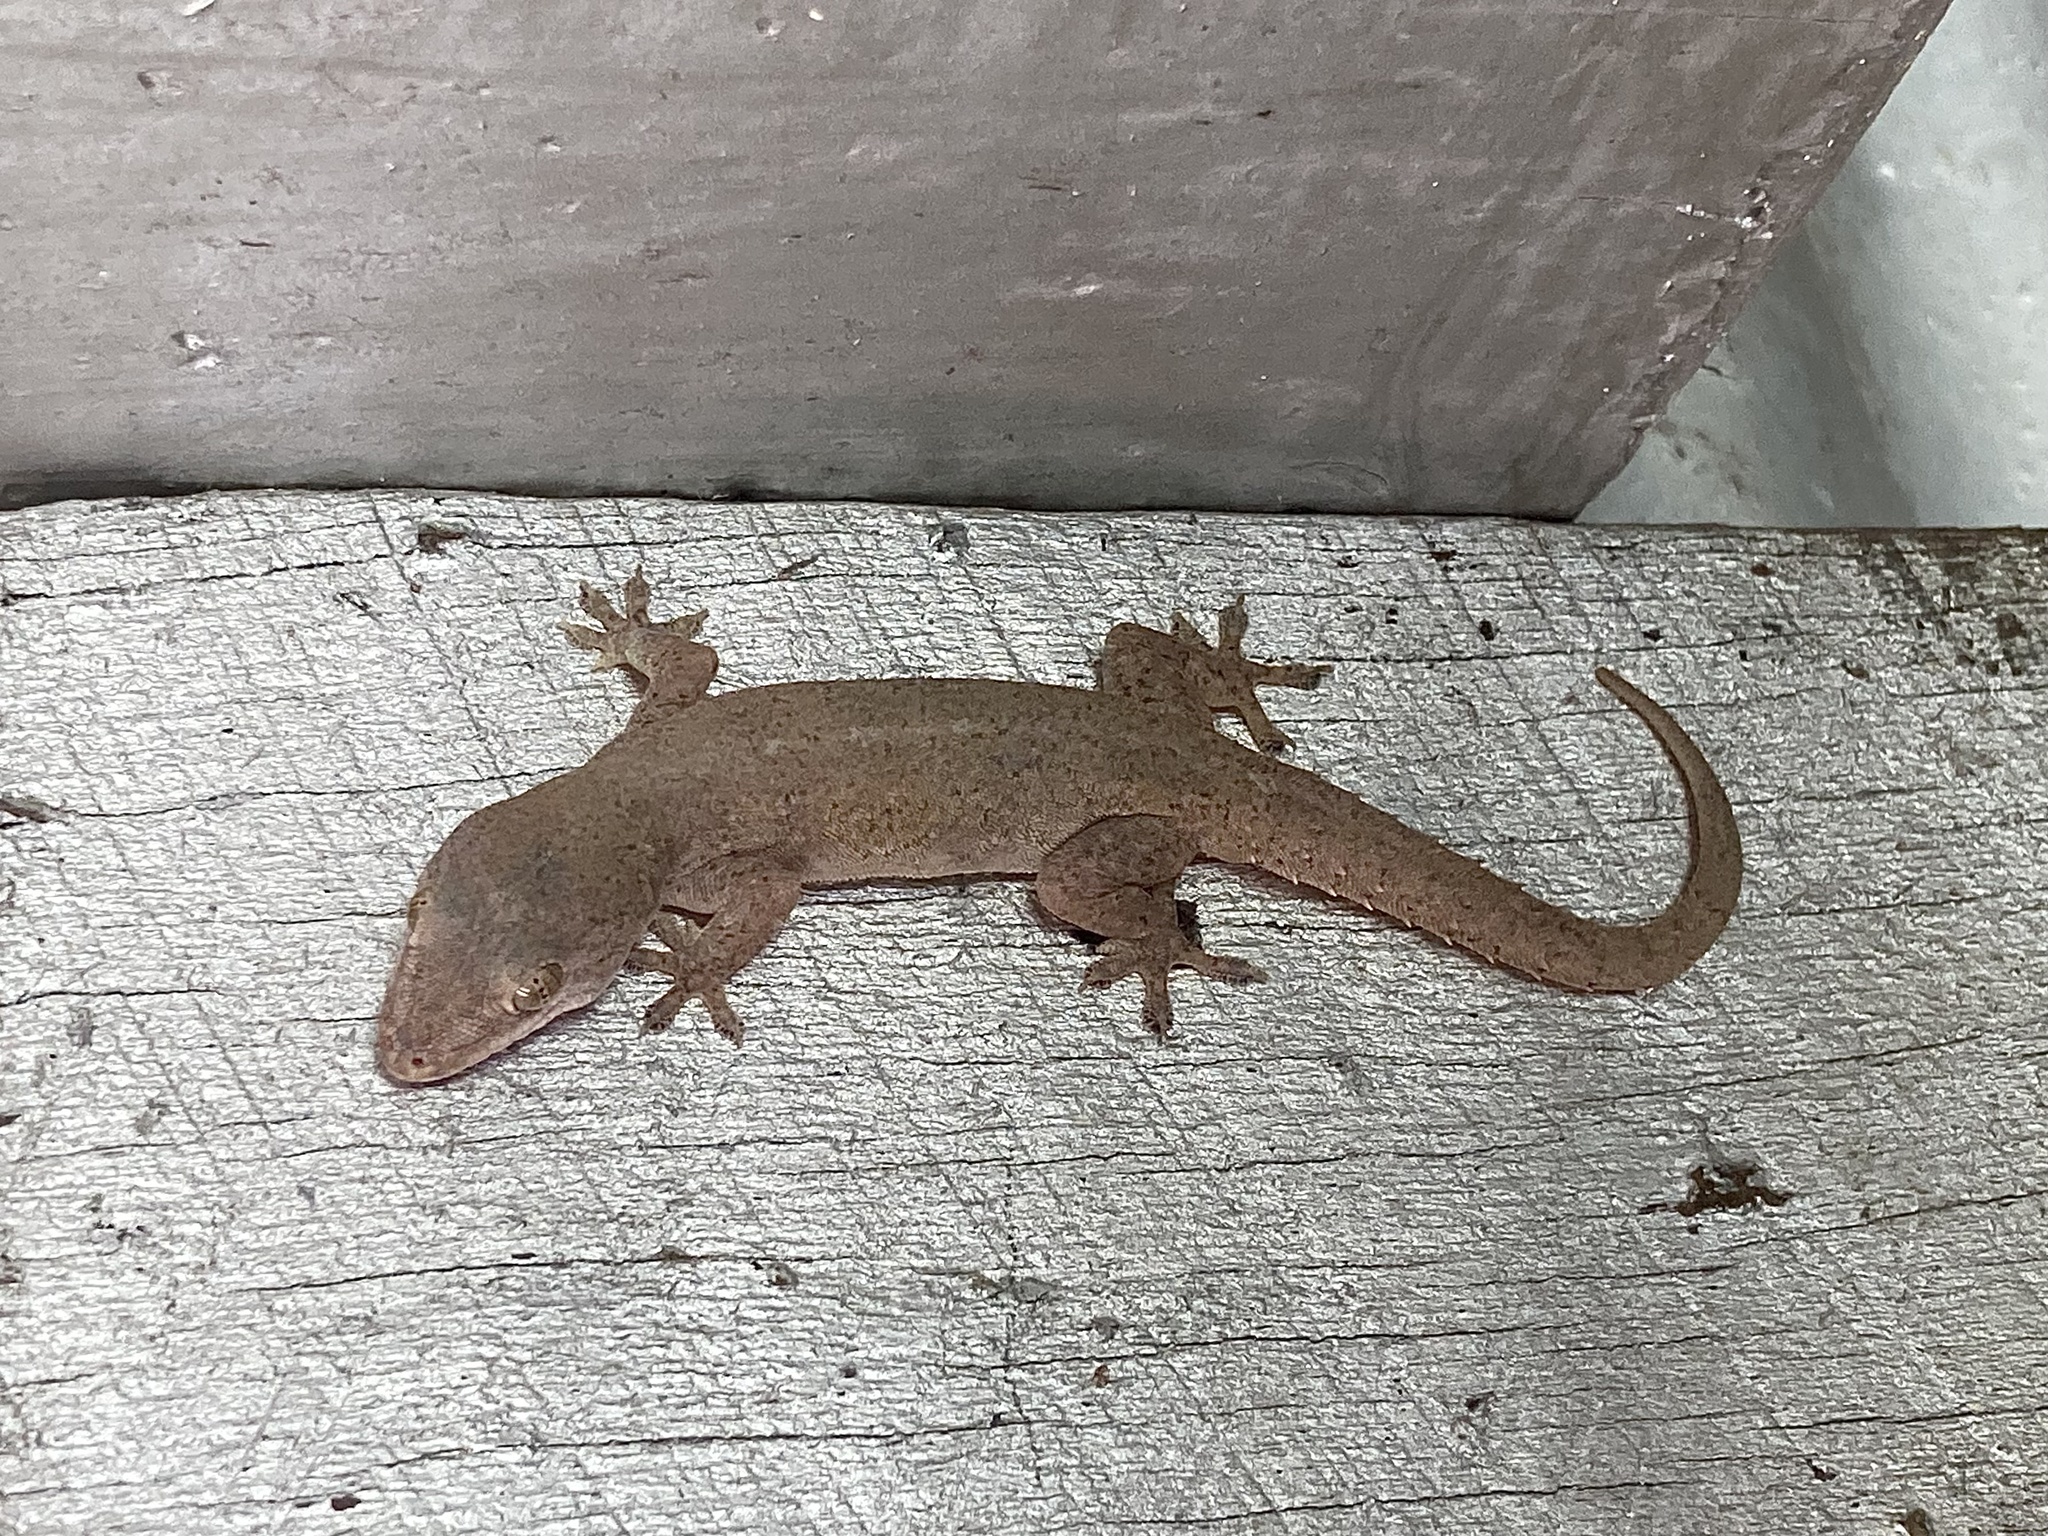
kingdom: Animalia
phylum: Chordata
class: Squamata
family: Gekkonidae
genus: Hemidactylus
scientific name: Hemidactylus frenatus
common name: Common house gecko
